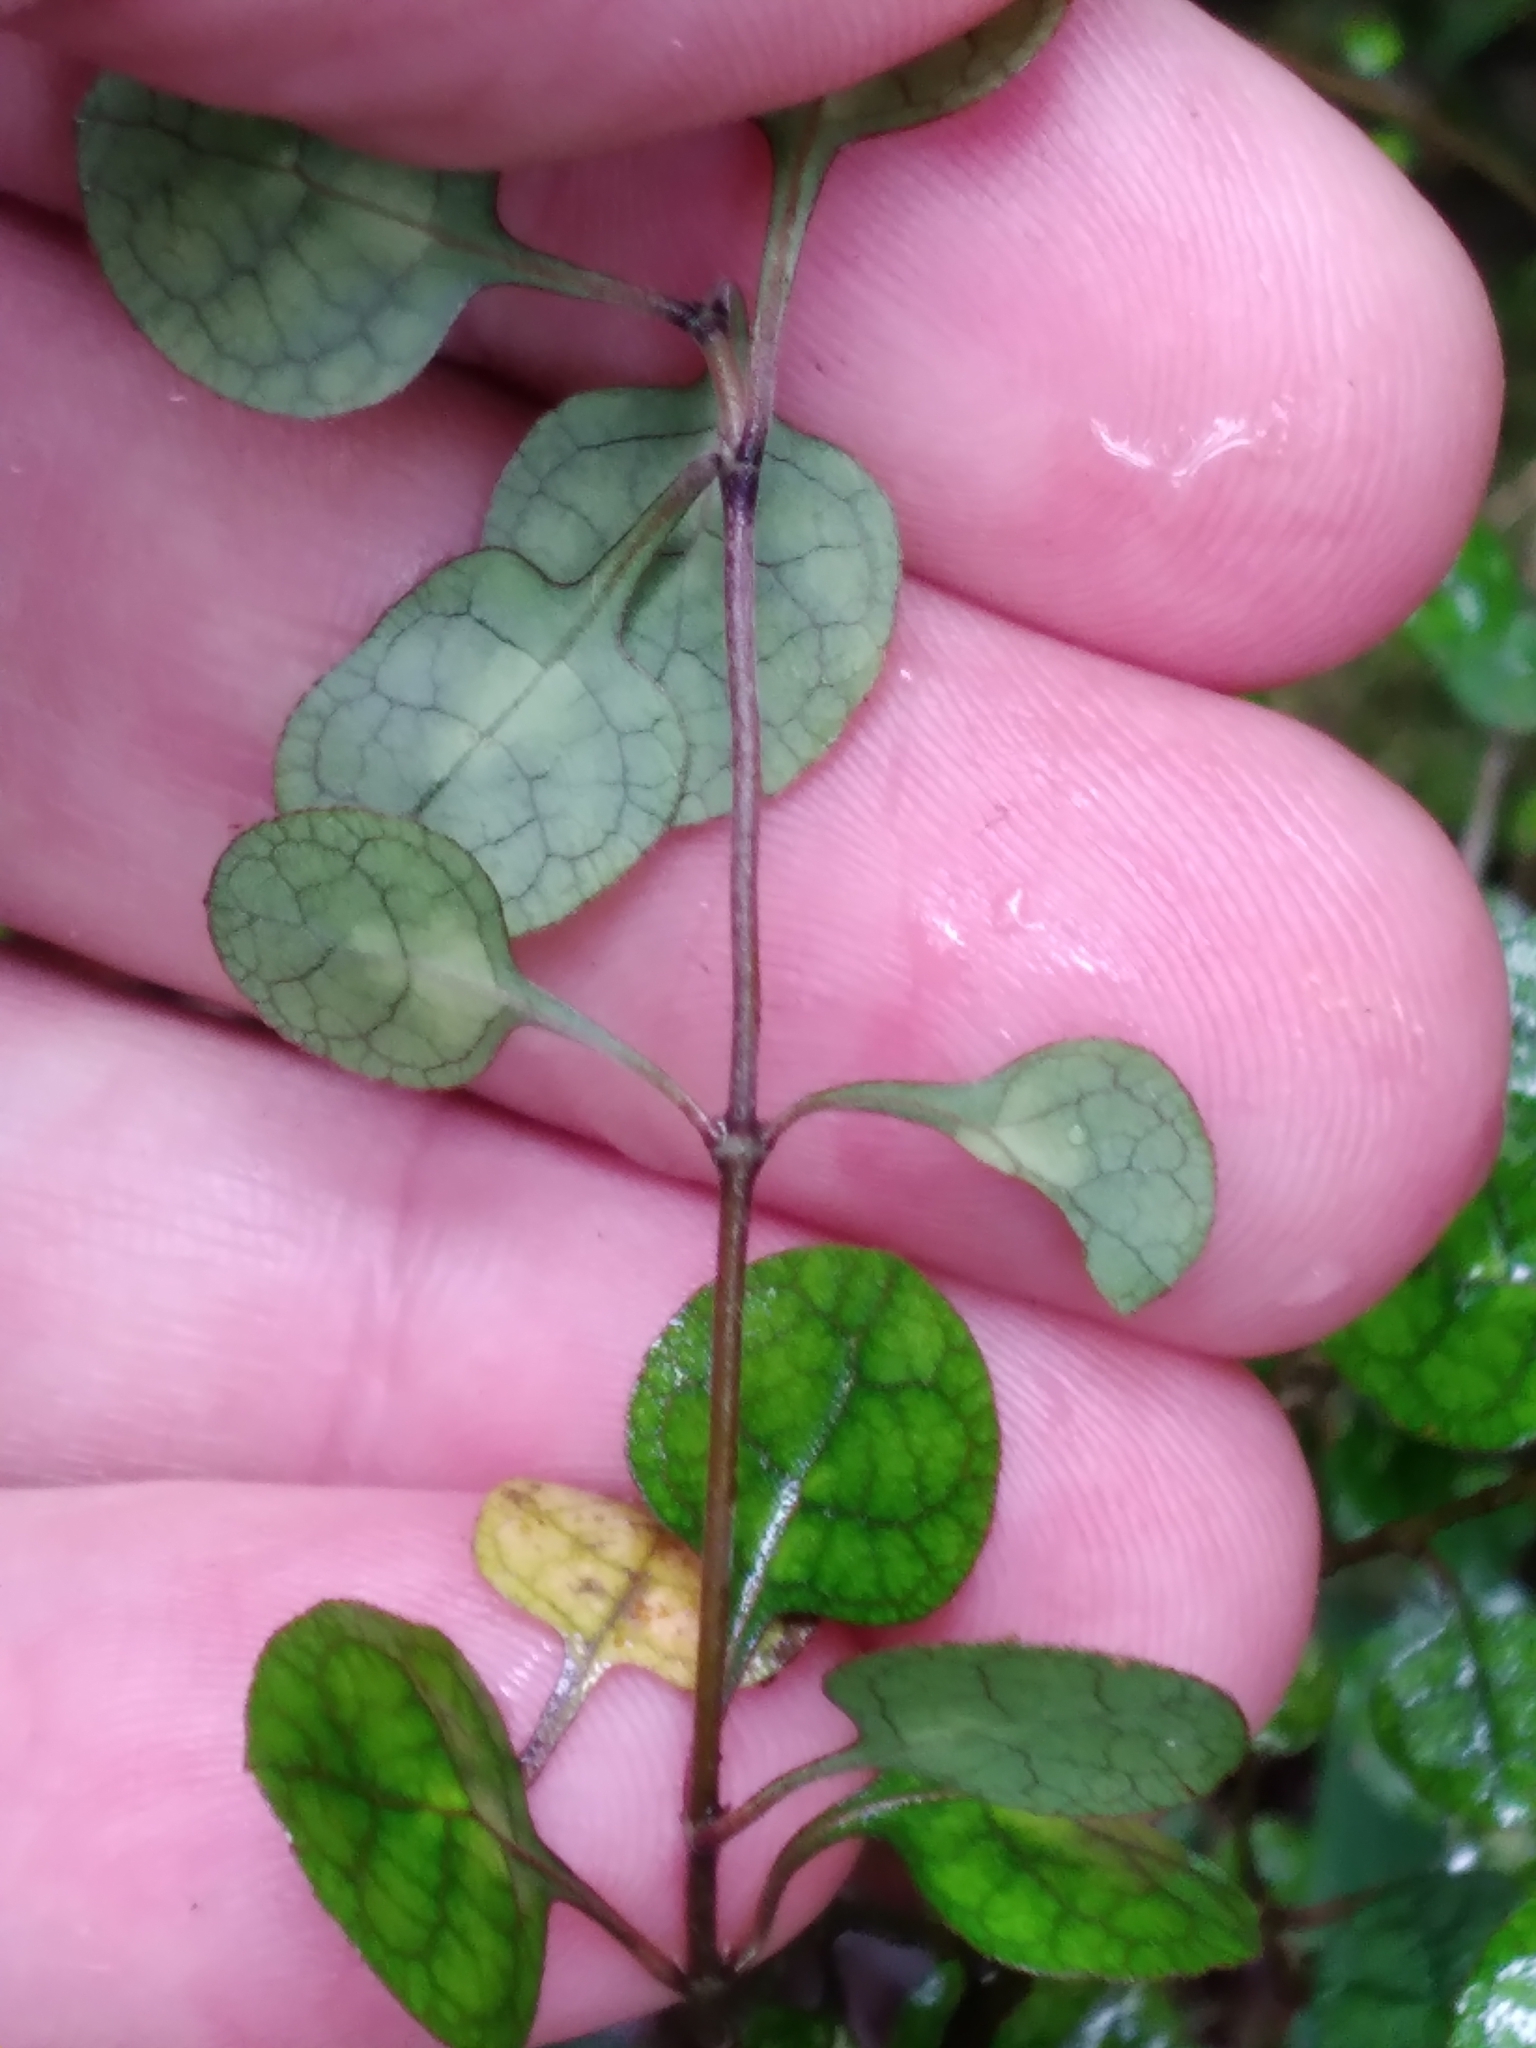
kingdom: Plantae
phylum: Tracheophyta
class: Magnoliopsida
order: Gentianales
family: Rubiaceae
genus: Coprosma
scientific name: Coprosma tenuicaulis
